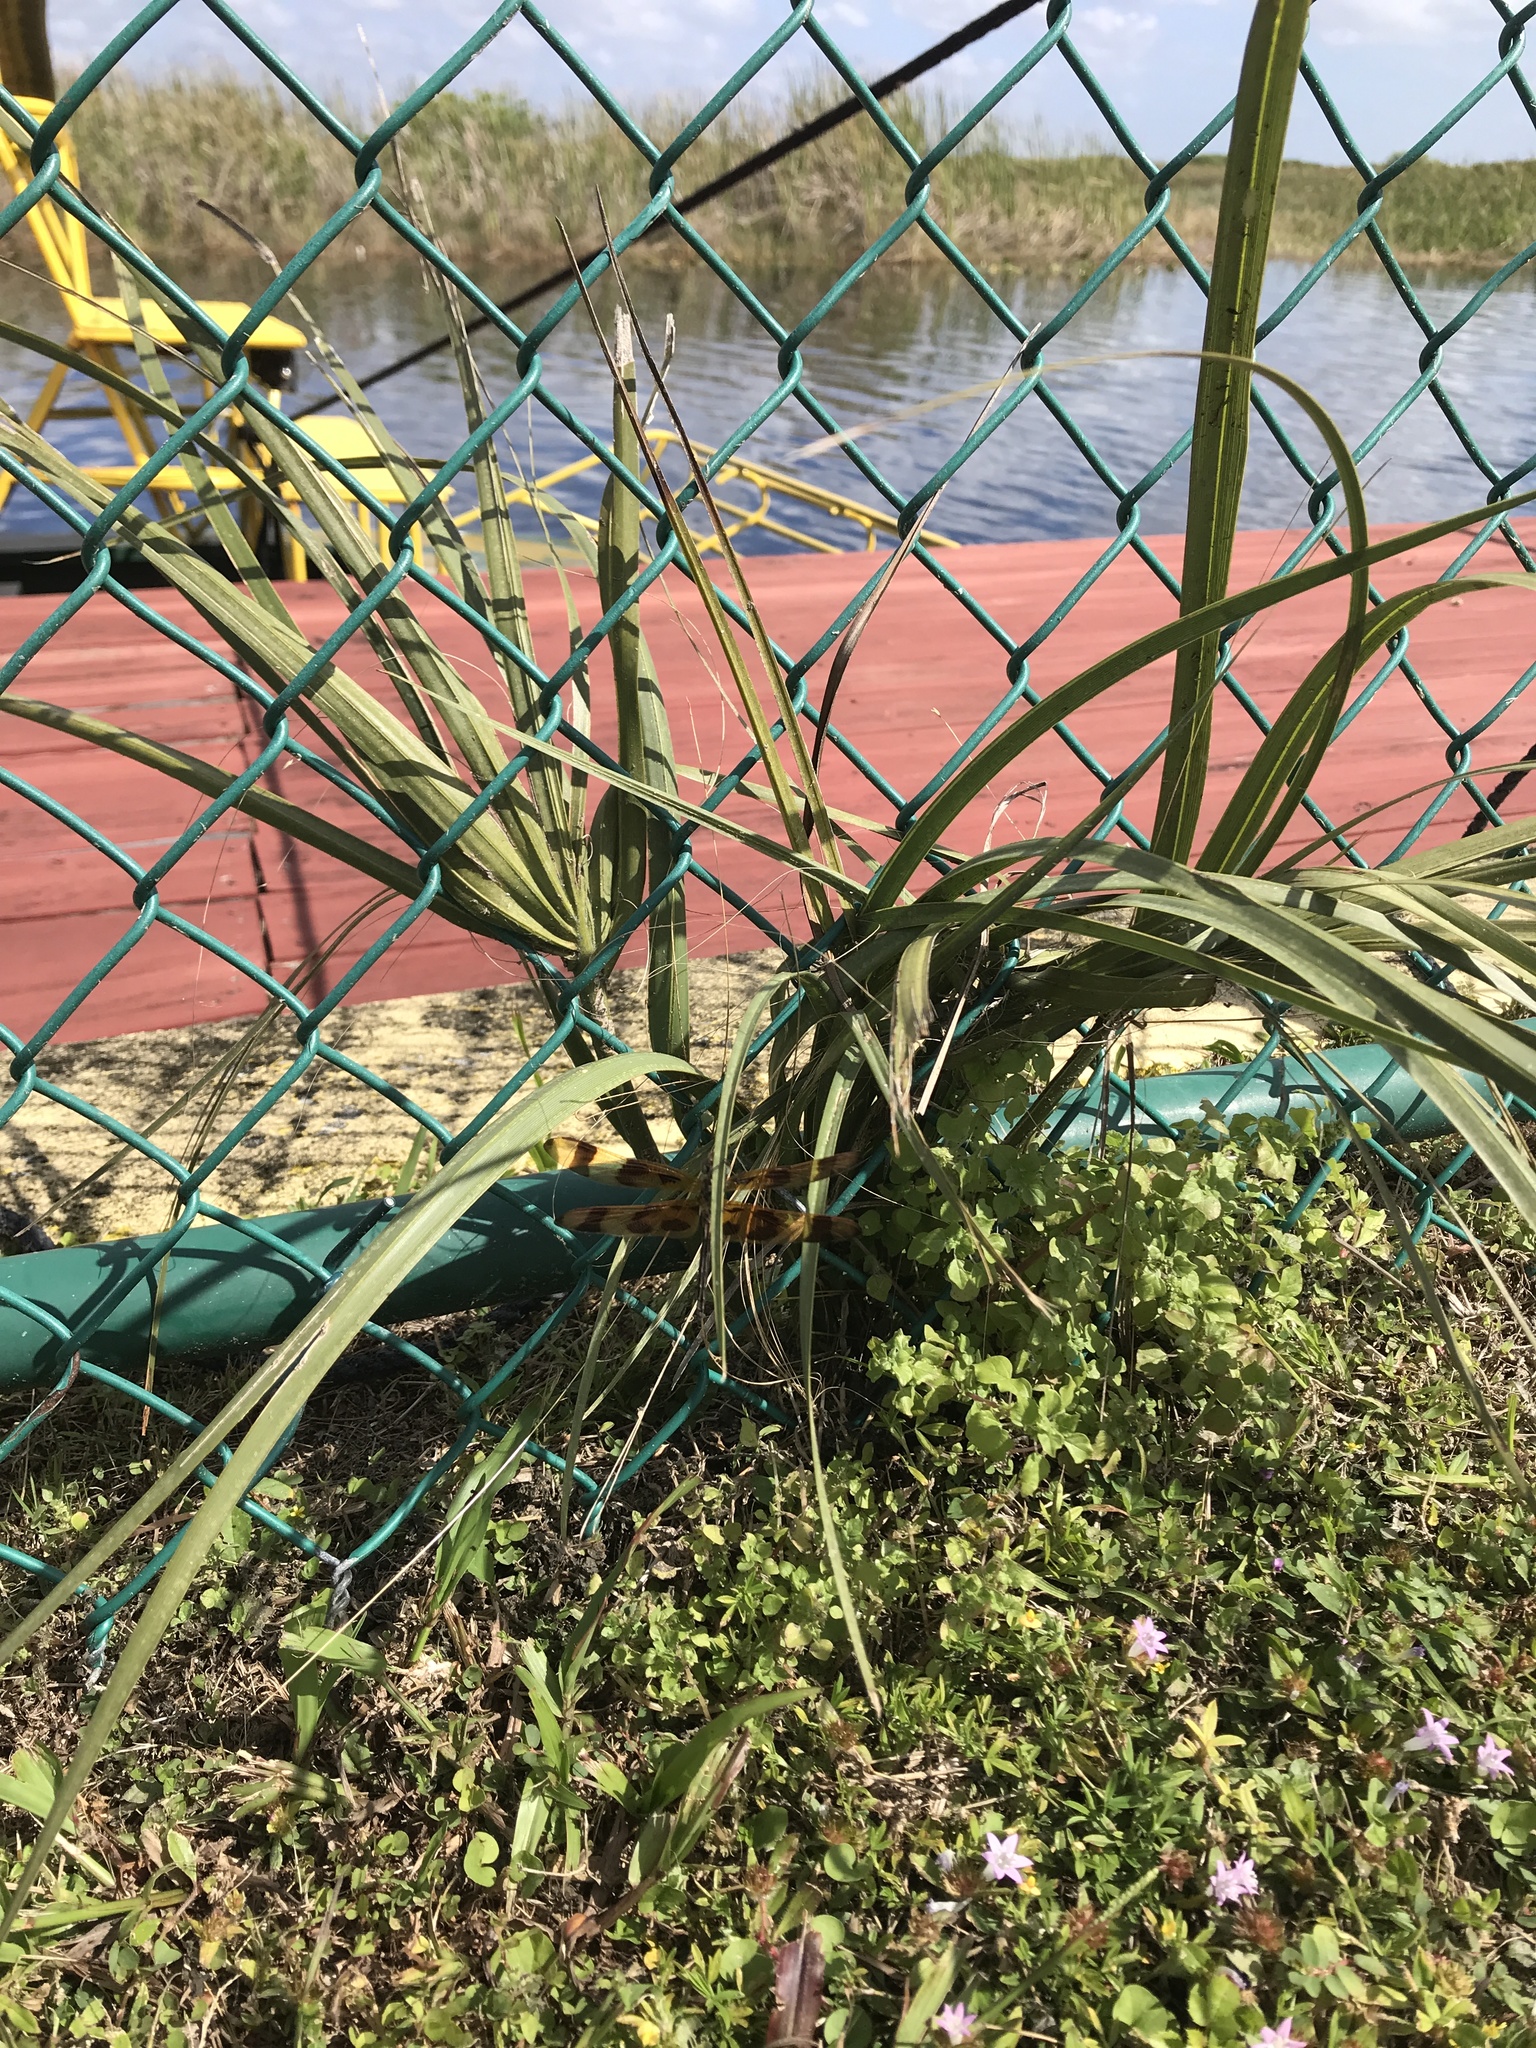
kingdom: Plantae
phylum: Tracheophyta
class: Liliopsida
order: Poales
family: Poaceae
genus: Cymbopogon
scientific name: Cymbopogon citratus
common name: Lemon grass
